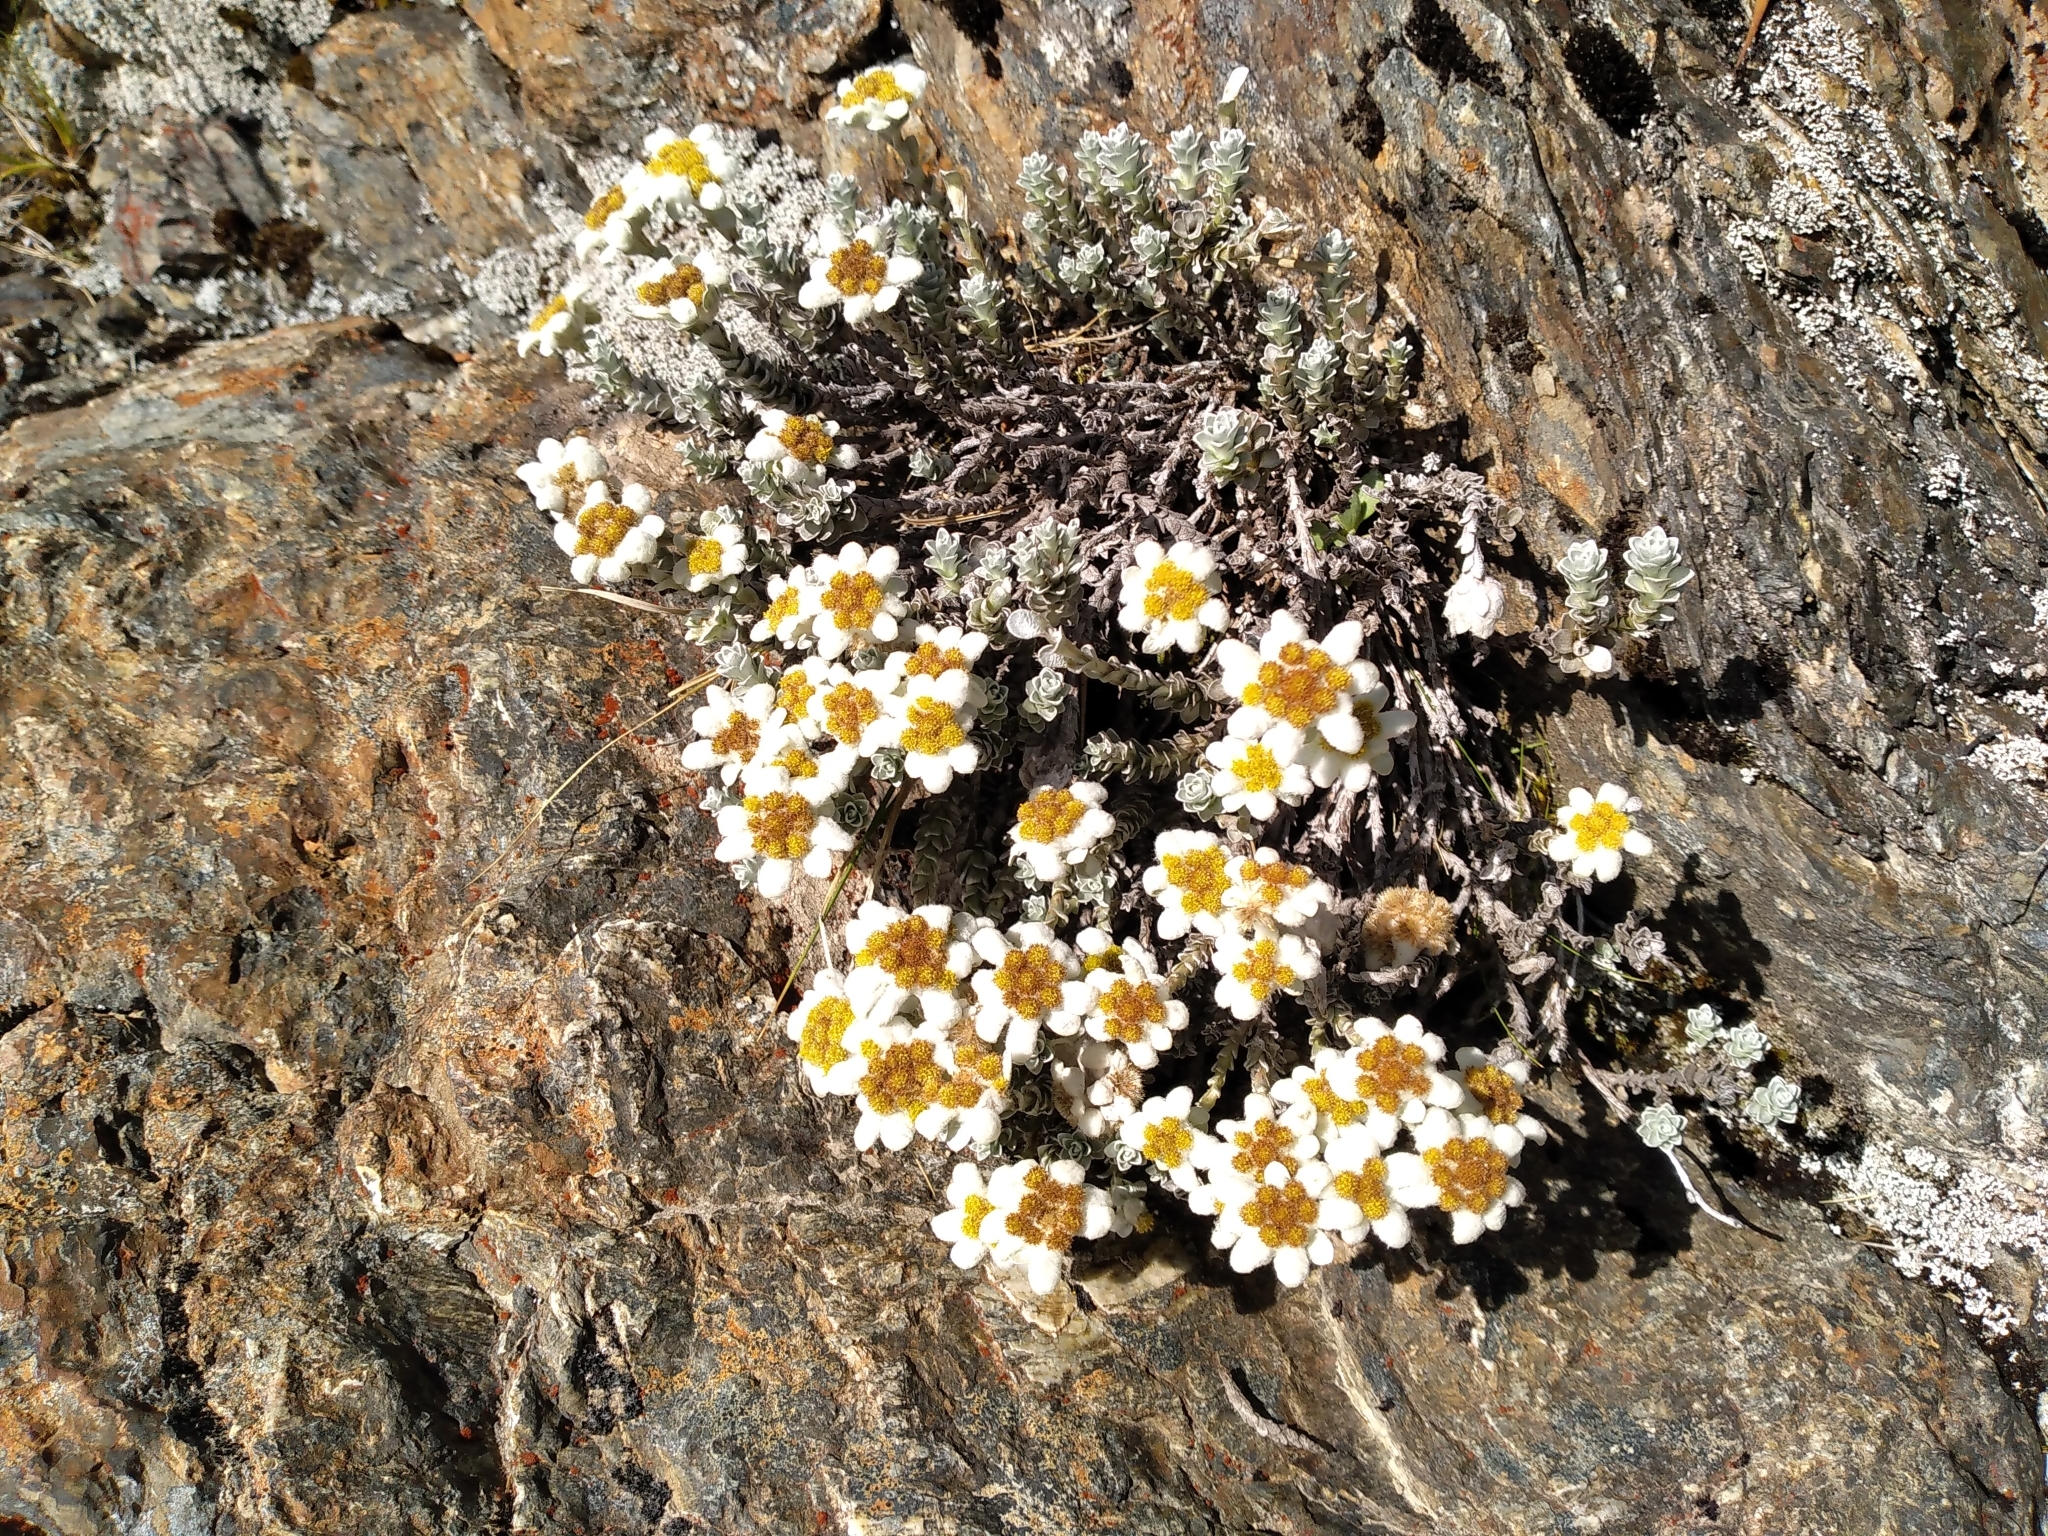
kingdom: Plantae
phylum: Tracheophyta
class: Magnoliopsida
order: Asterales
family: Asteraceae
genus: Leucogenes
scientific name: Leucogenes grandiceps
